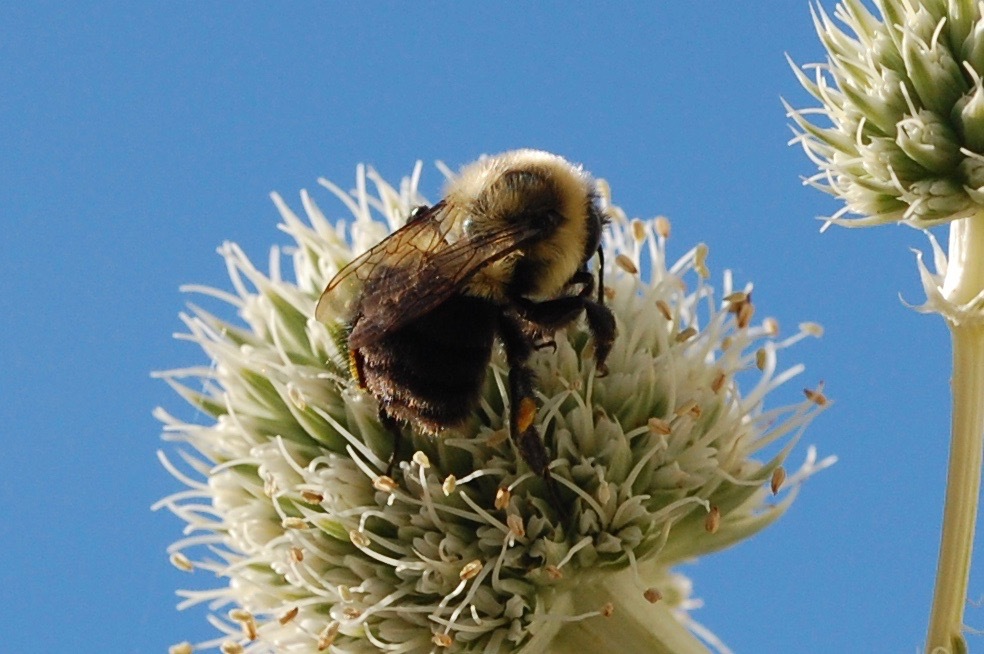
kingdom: Animalia
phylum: Arthropoda
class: Insecta
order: Hymenoptera
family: Apidae
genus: Bombus
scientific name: Bombus impatiens
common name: Common eastern bumble bee
